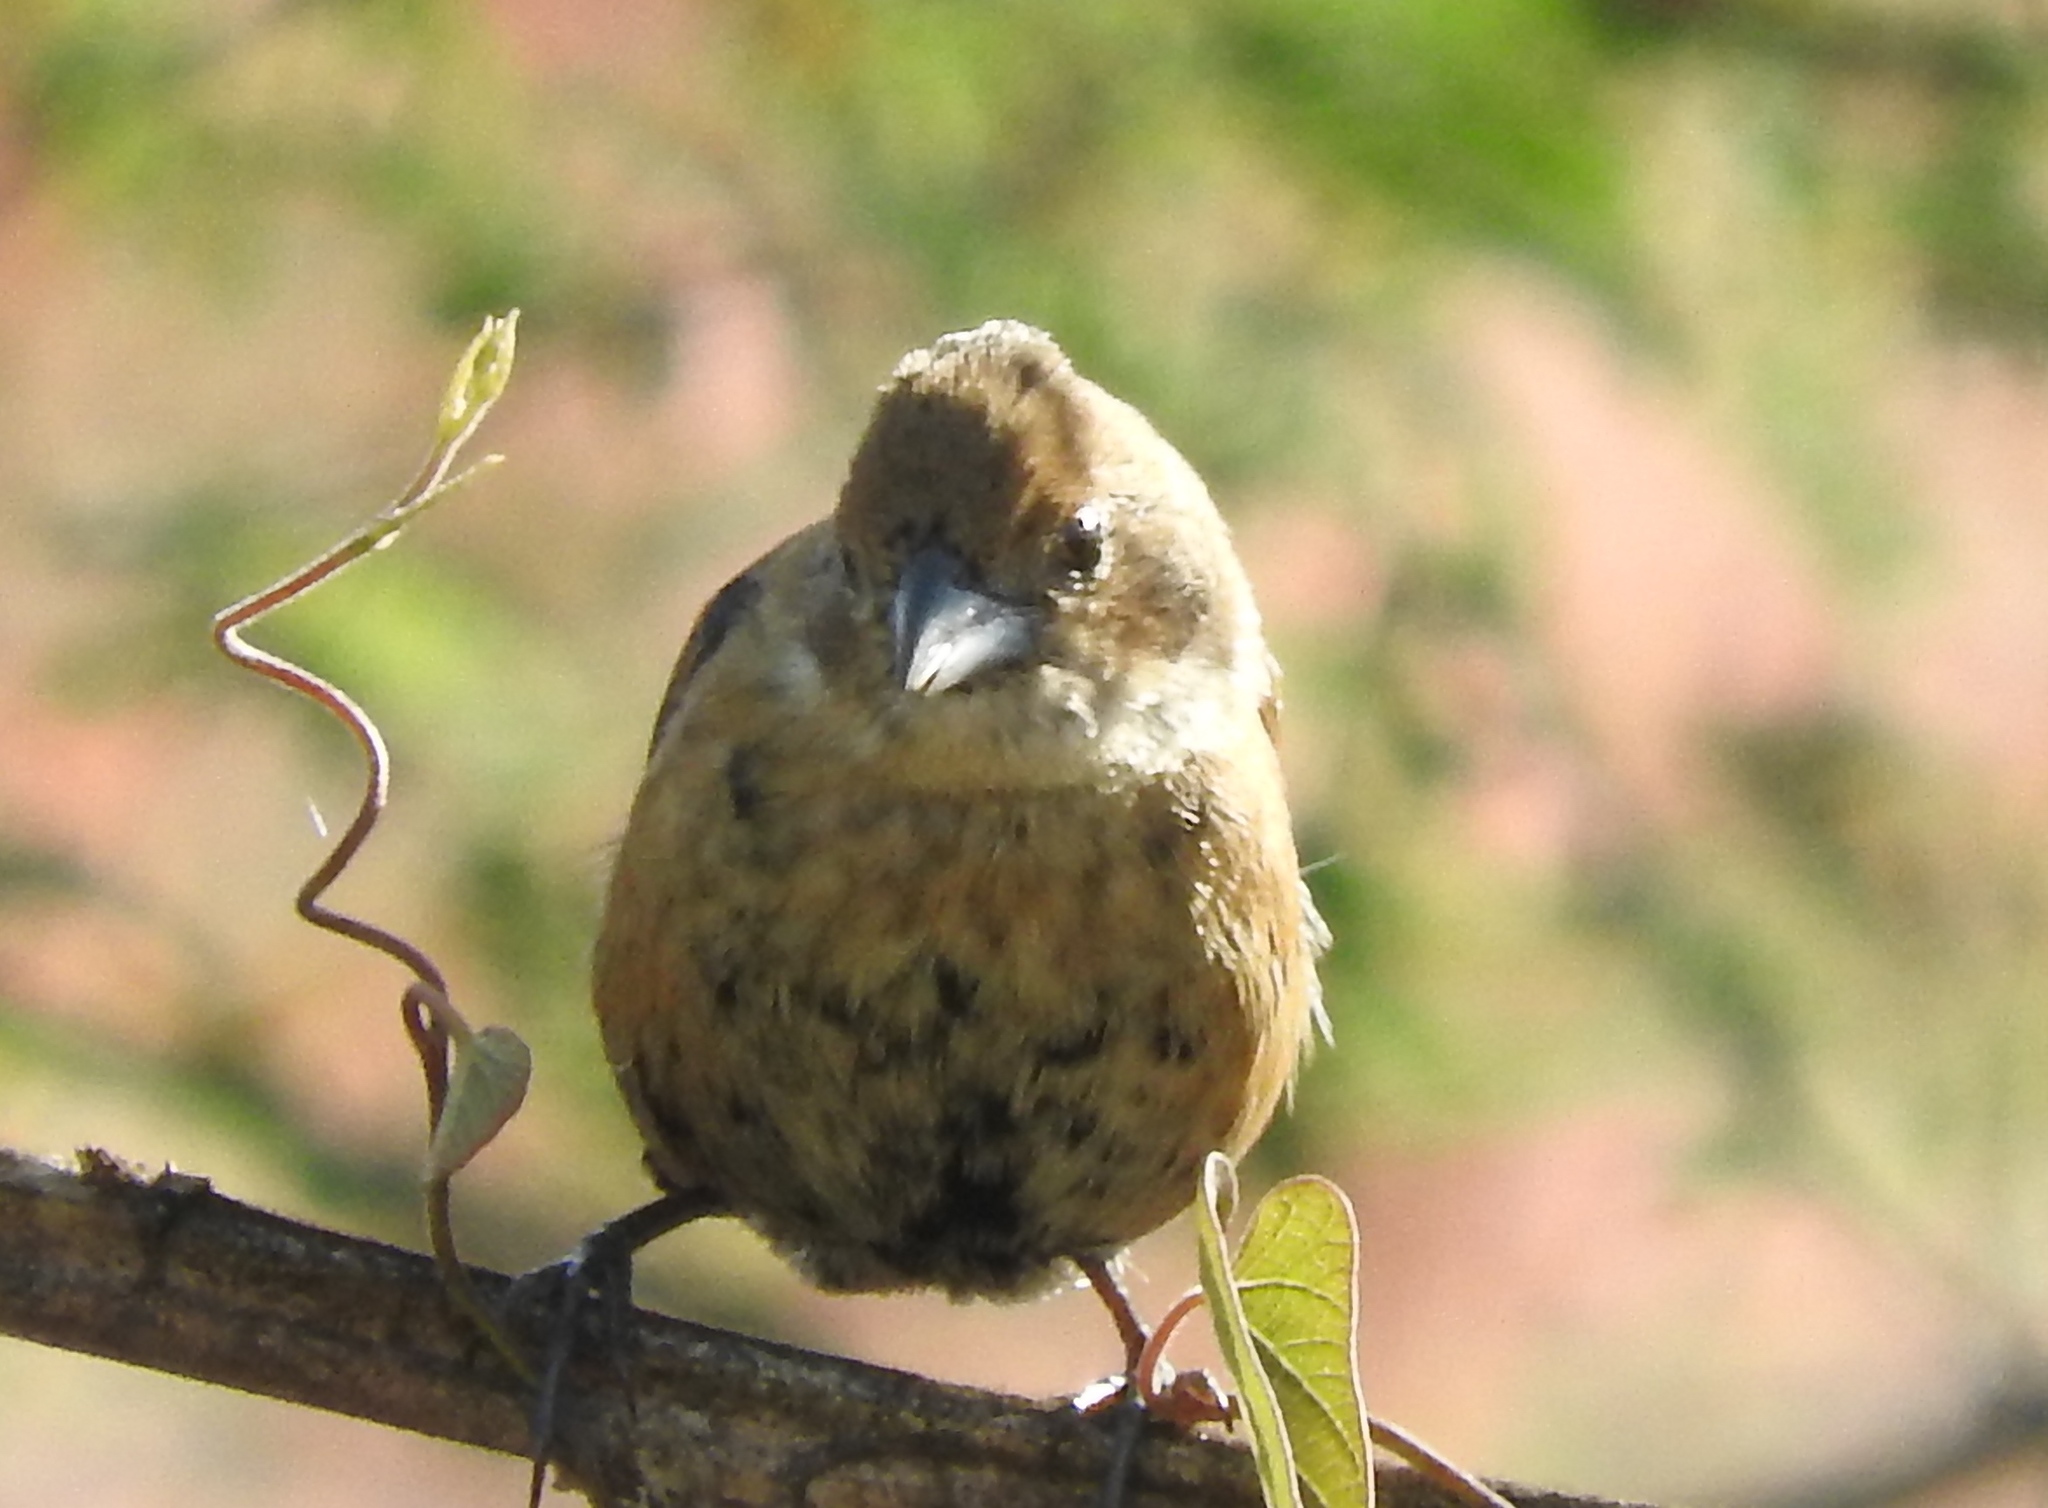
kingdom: Animalia
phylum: Chordata
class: Aves
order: Passeriformes
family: Thraupidae
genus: Volatinia
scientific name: Volatinia jacarina
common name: Blue-black grassquit
